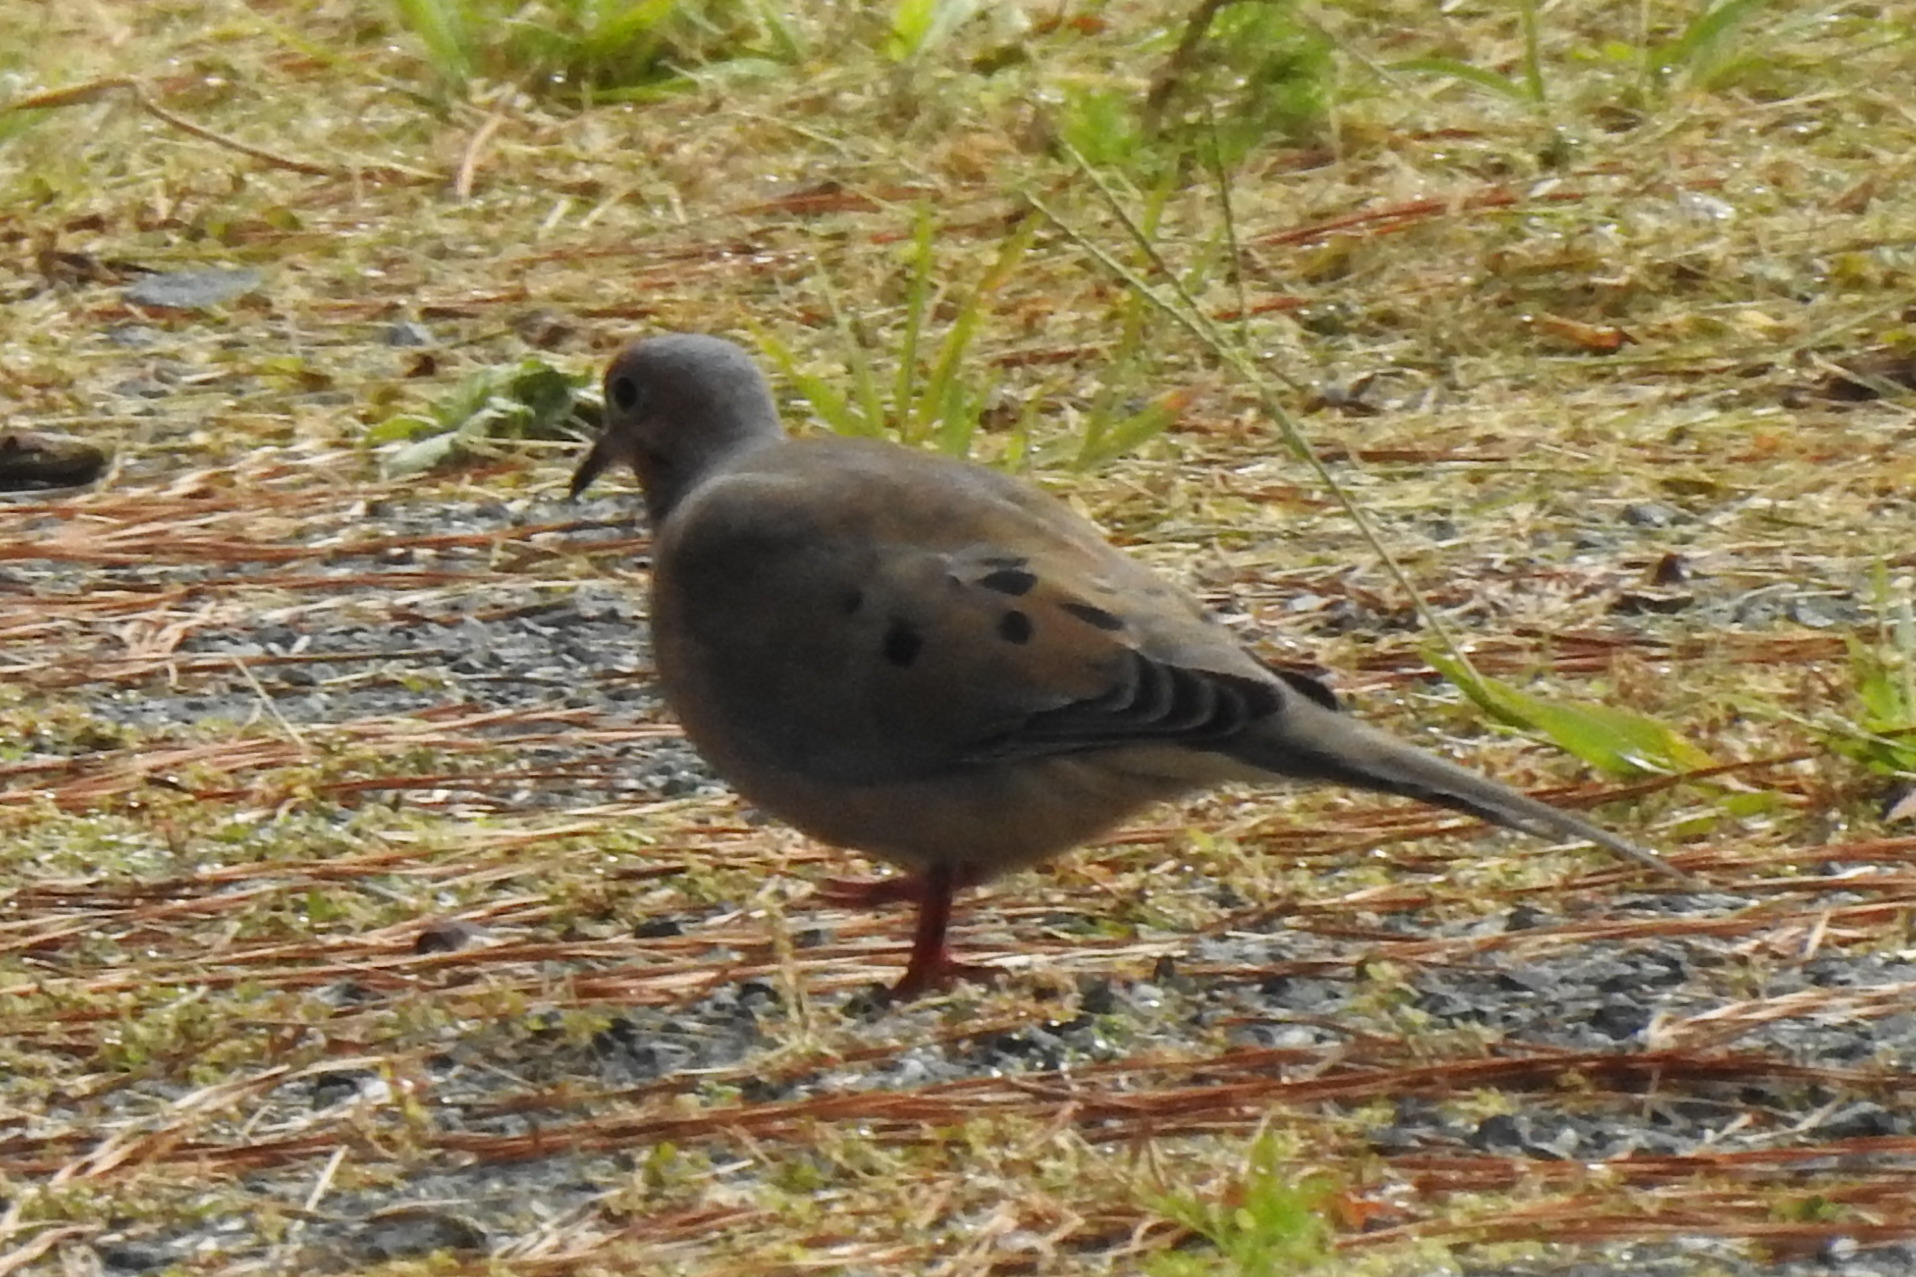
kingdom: Animalia
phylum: Chordata
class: Aves
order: Columbiformes
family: Columbidae
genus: Zenaida
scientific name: Zenaida macroura
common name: Mourning dove
